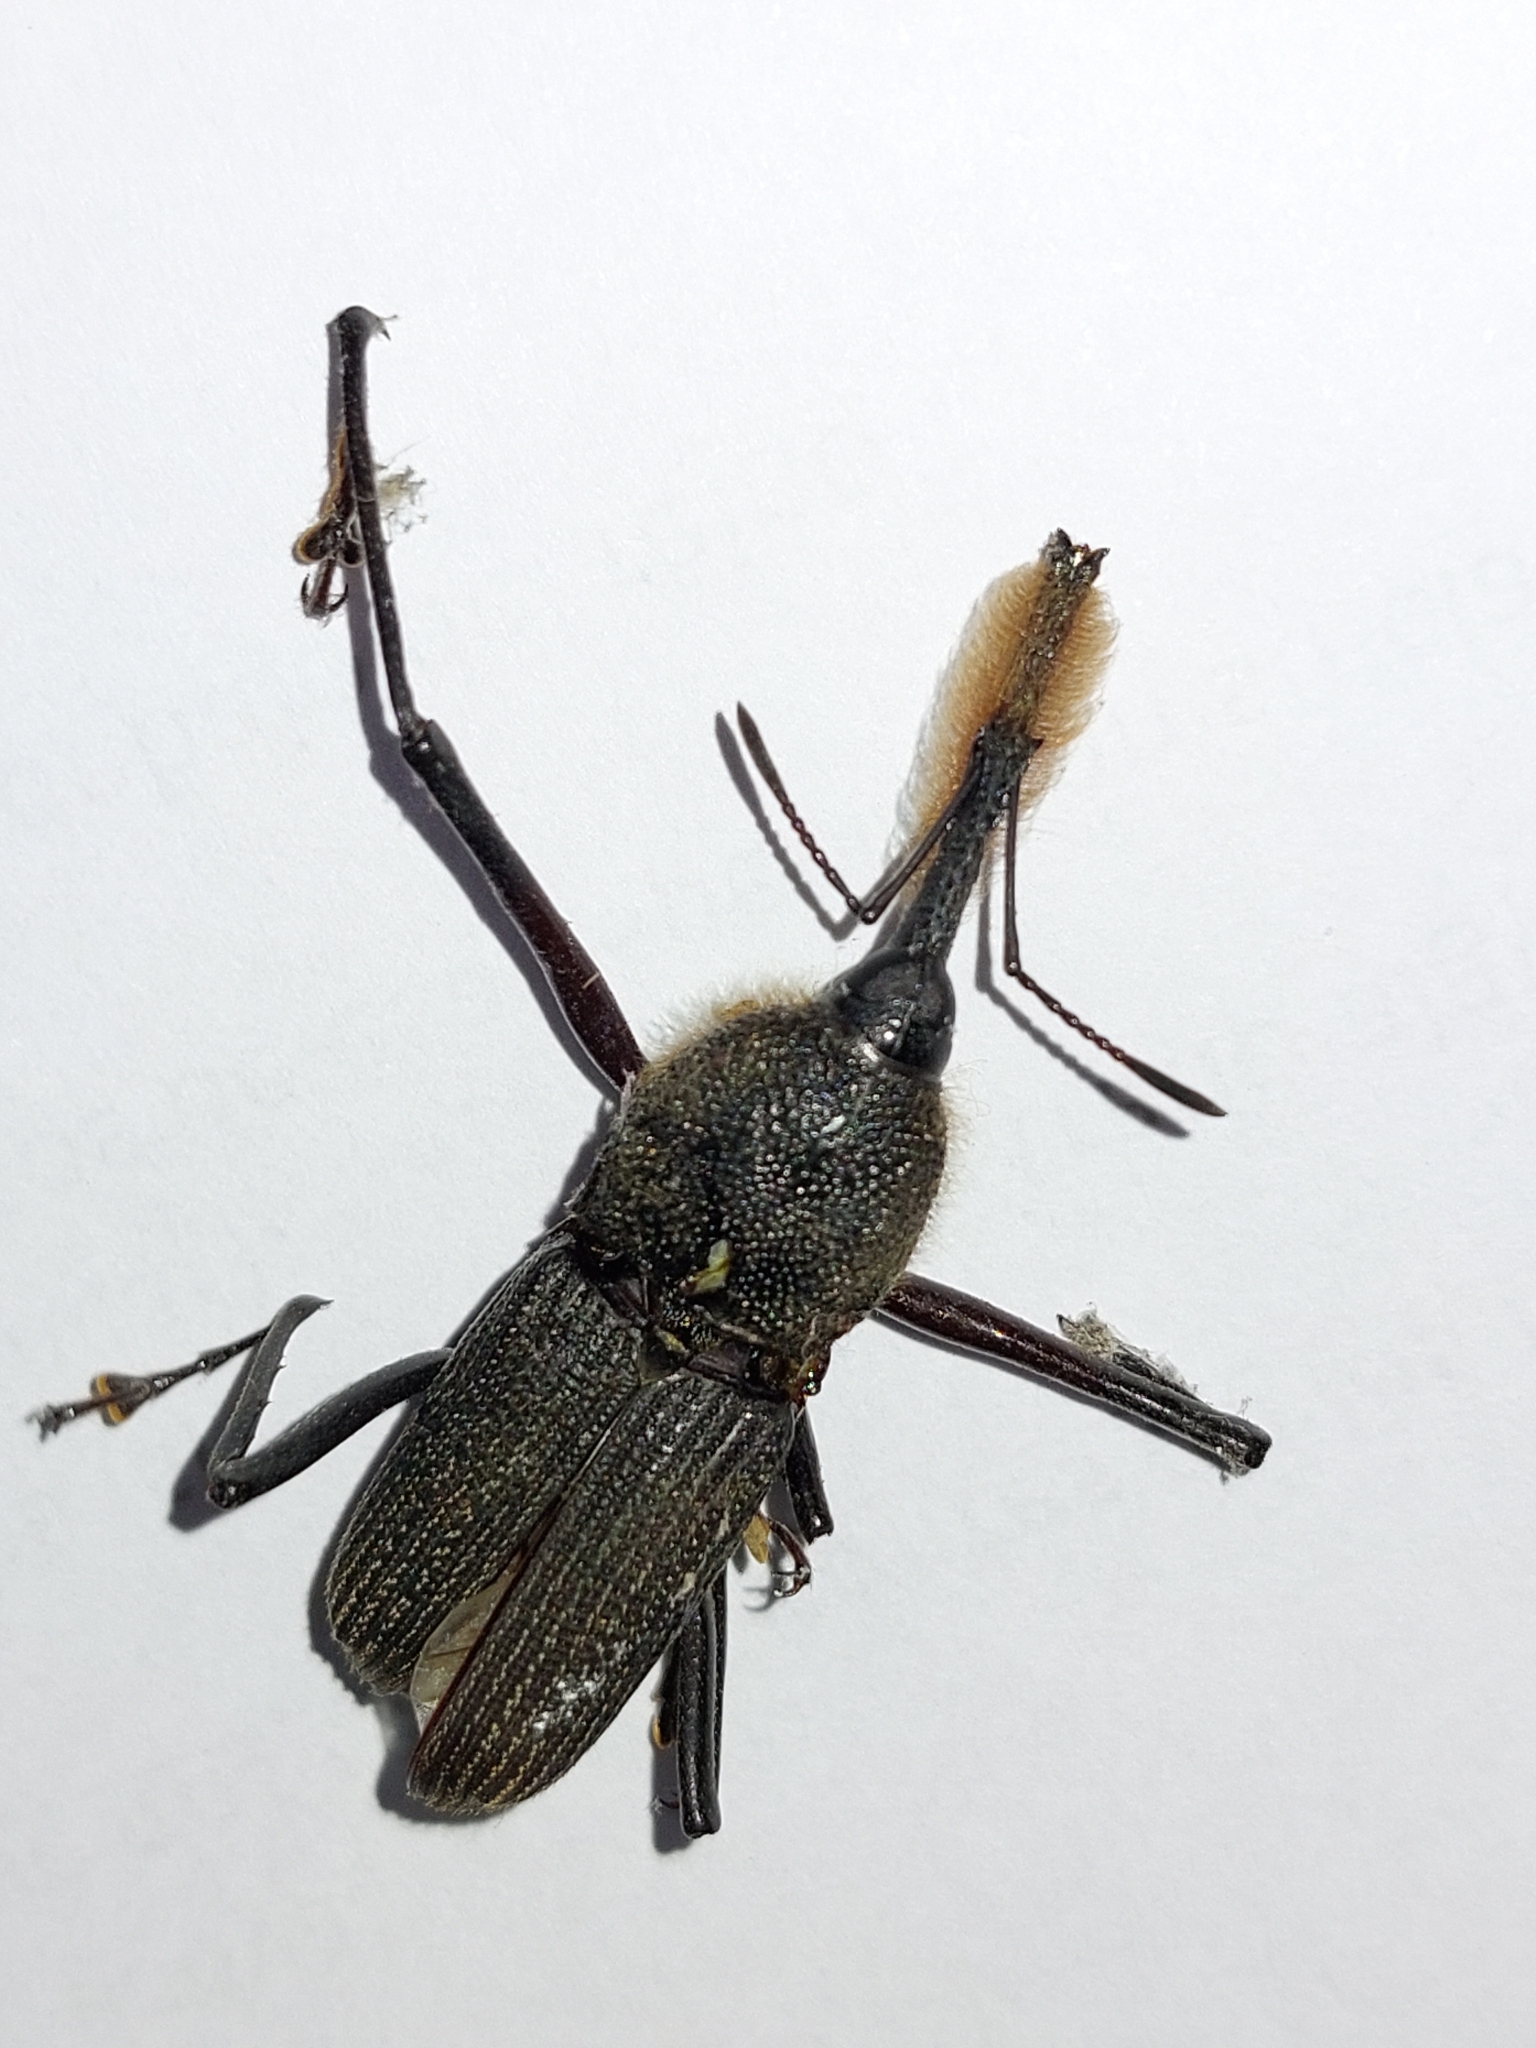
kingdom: Animalia
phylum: Arthropoda
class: Insecta
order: Coleoptera
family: Dryophthoridae
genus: Rhinostomus
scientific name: Rhinostomus barbirostris
